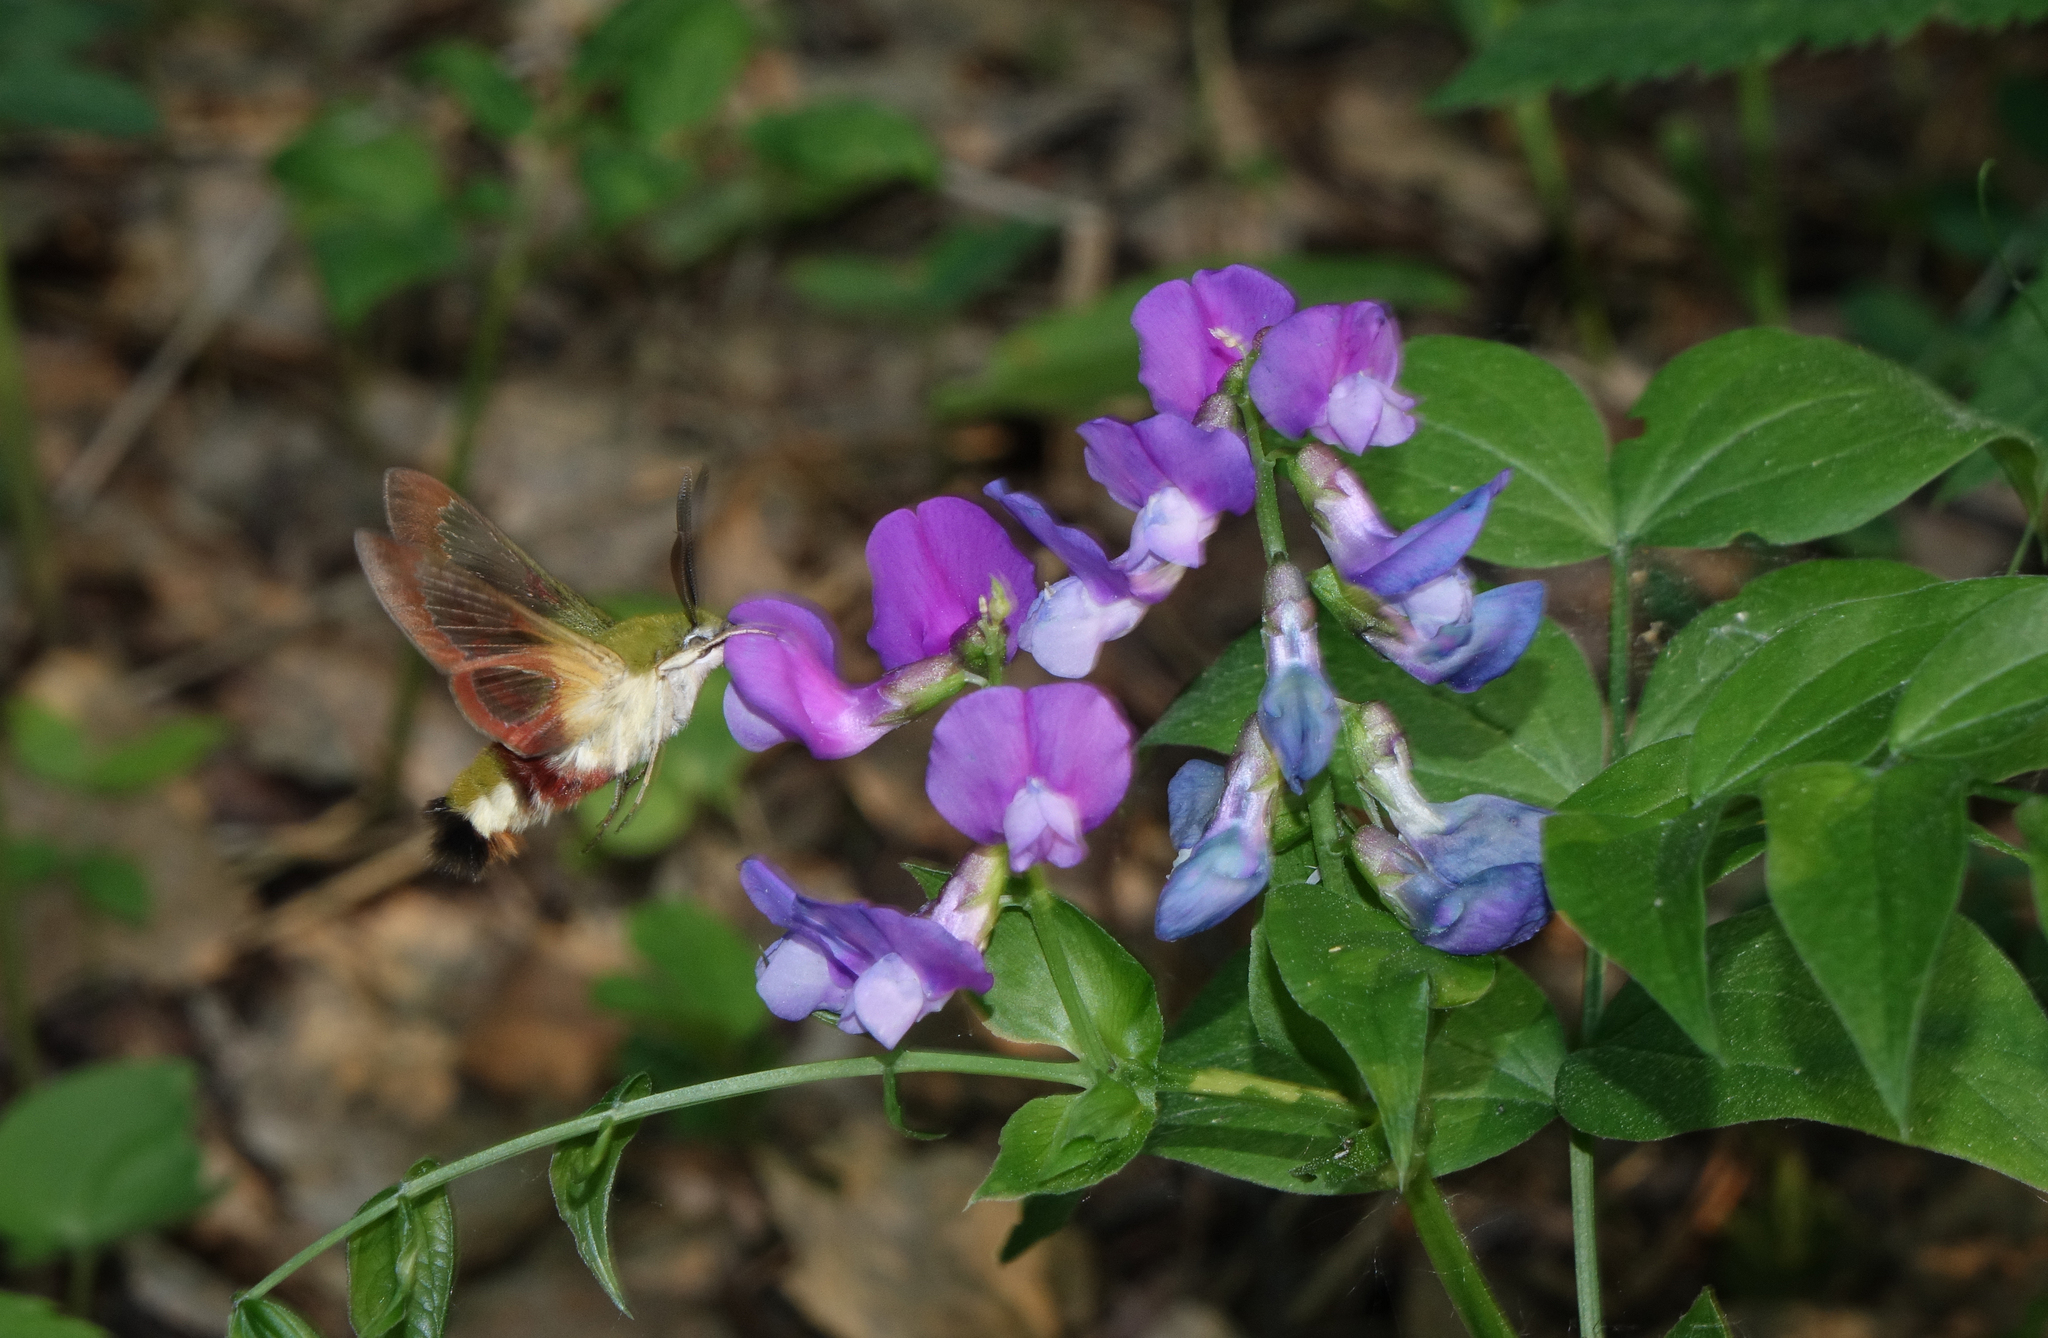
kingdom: Plantae
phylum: Tracheophyta
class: Magnoliopsida
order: Fabales
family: Fabaceae
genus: Lathyrus
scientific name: Lathyrus vernus
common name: Spring pea
